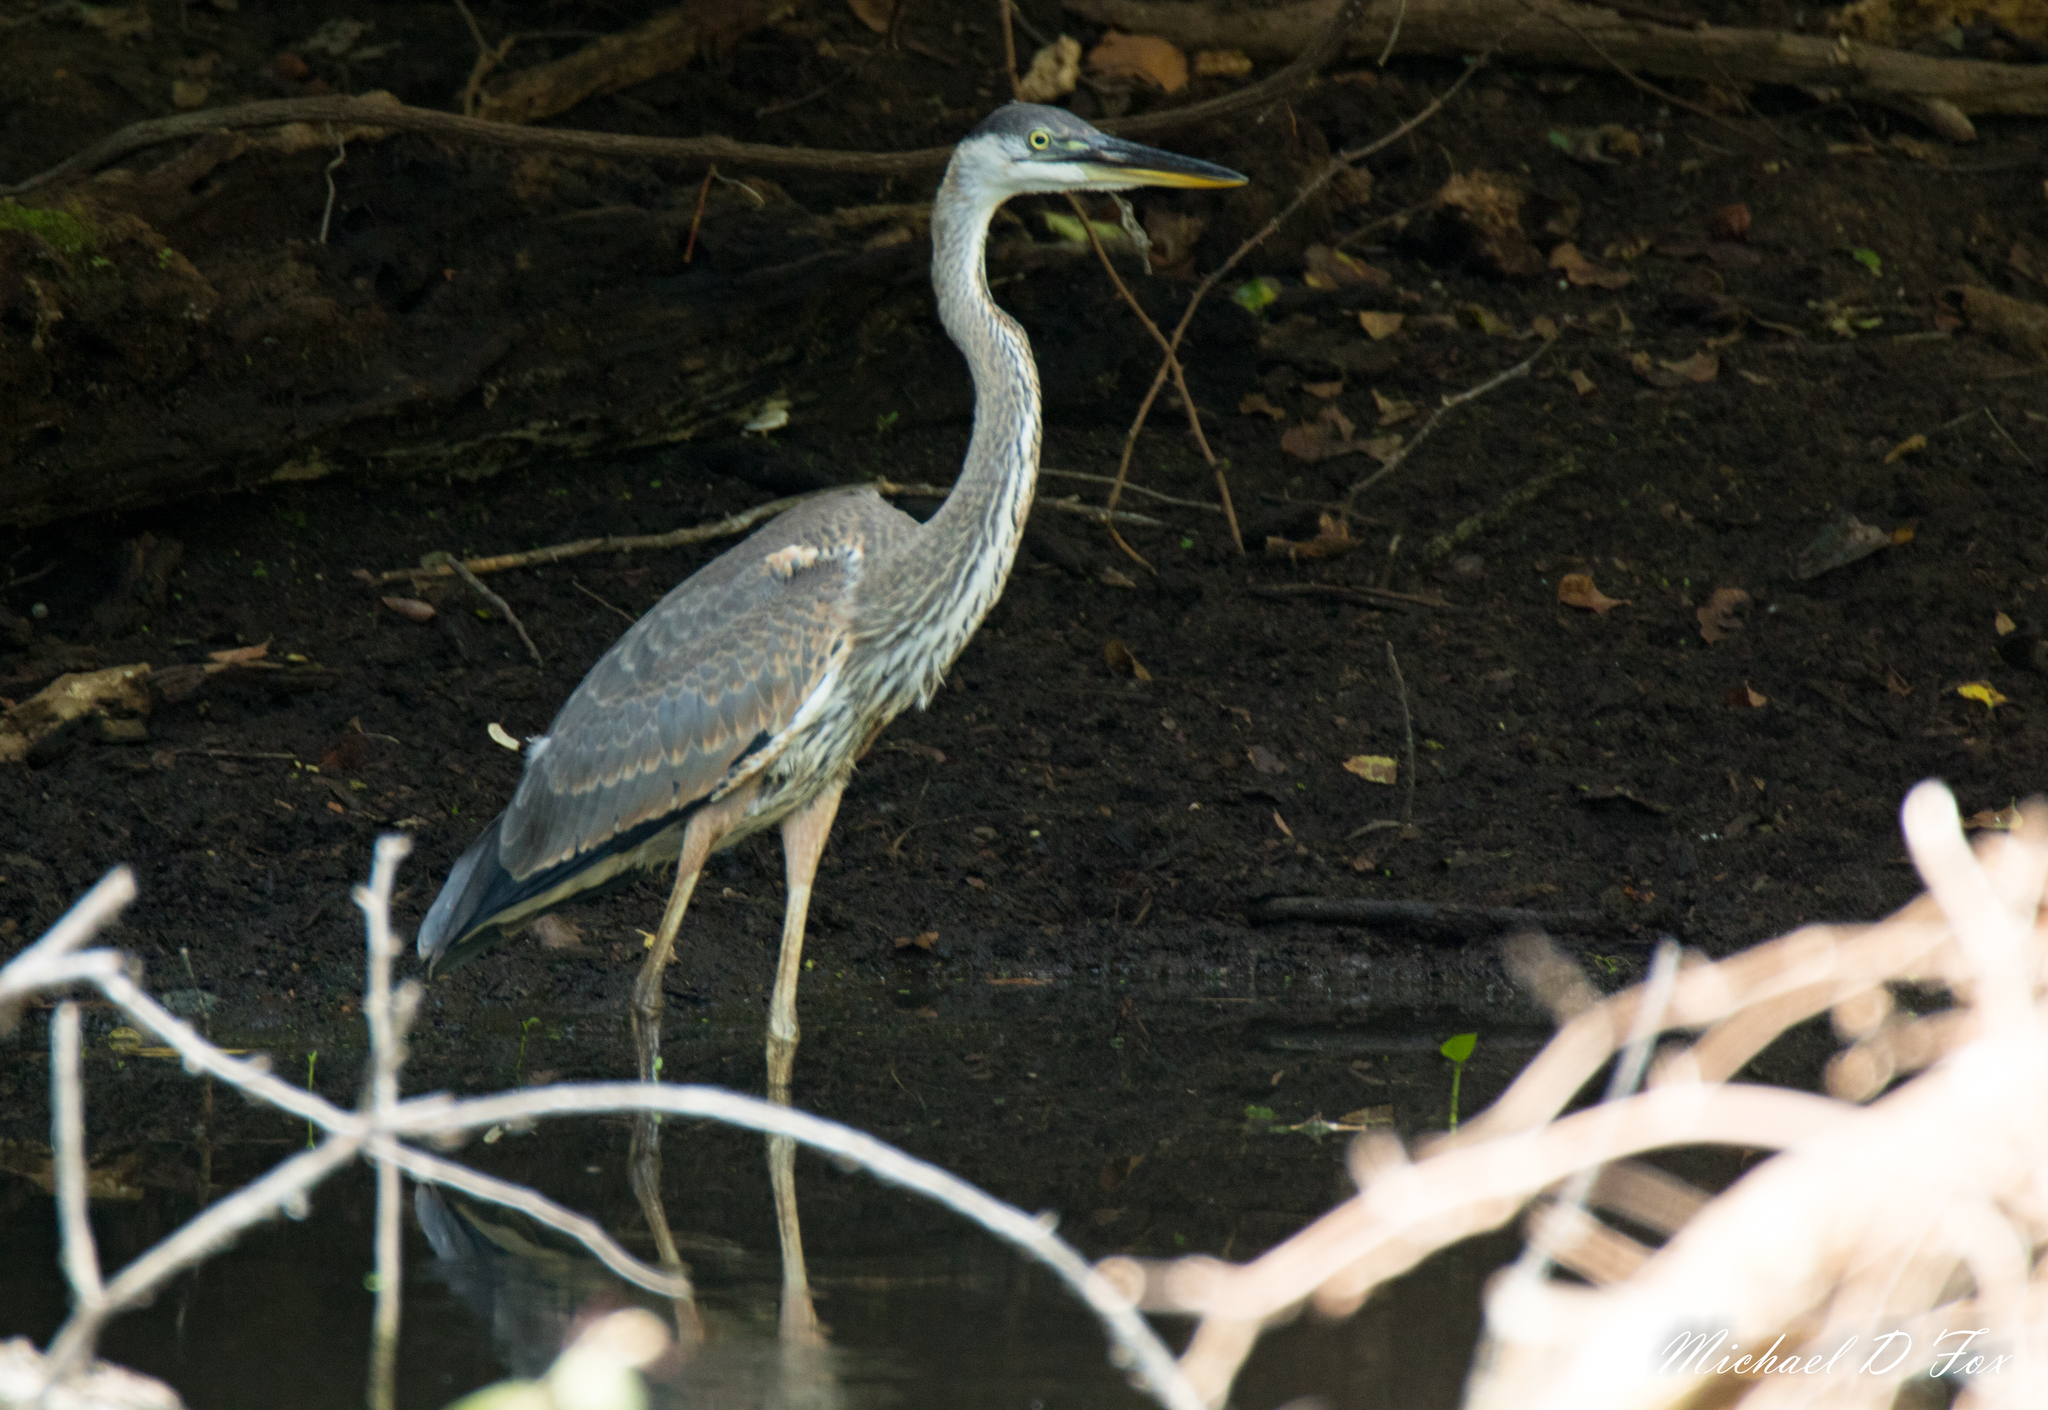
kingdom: Animalia
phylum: Chordata
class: Aves
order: Pelecaniformes
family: Ardeidae
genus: Ardea
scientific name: Ardea herodias
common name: Great blue heron
